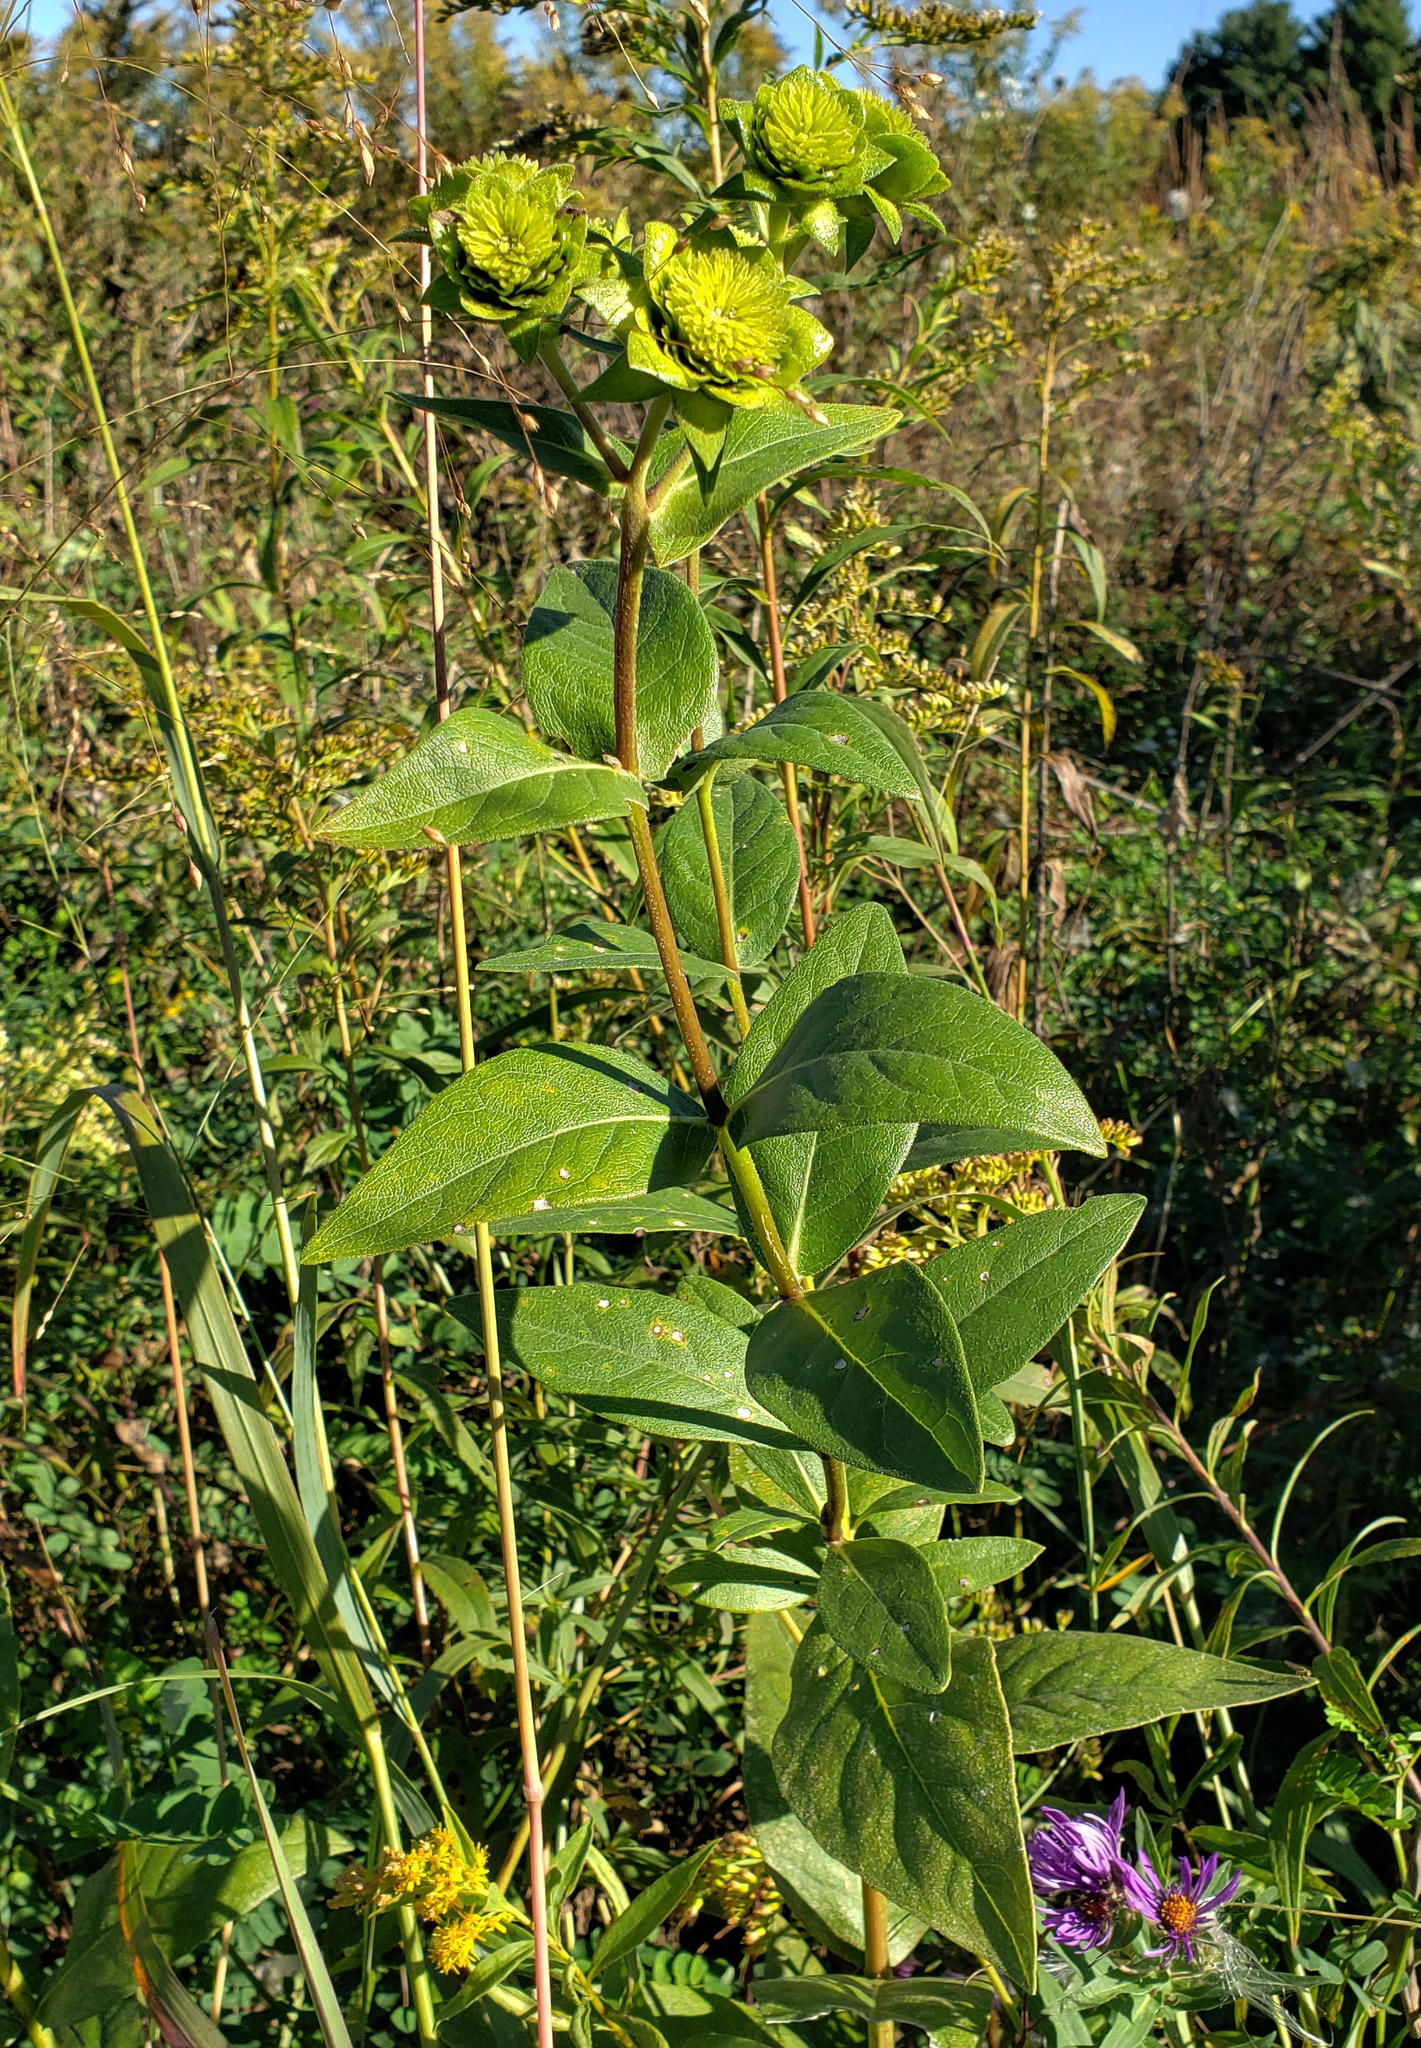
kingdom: Plantae
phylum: Tracheophyta
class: Magnoliopsida
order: Asterales
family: Asteraceae
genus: Silphium
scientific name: Silphium integrifolium
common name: Whole-leaf rosinweed
